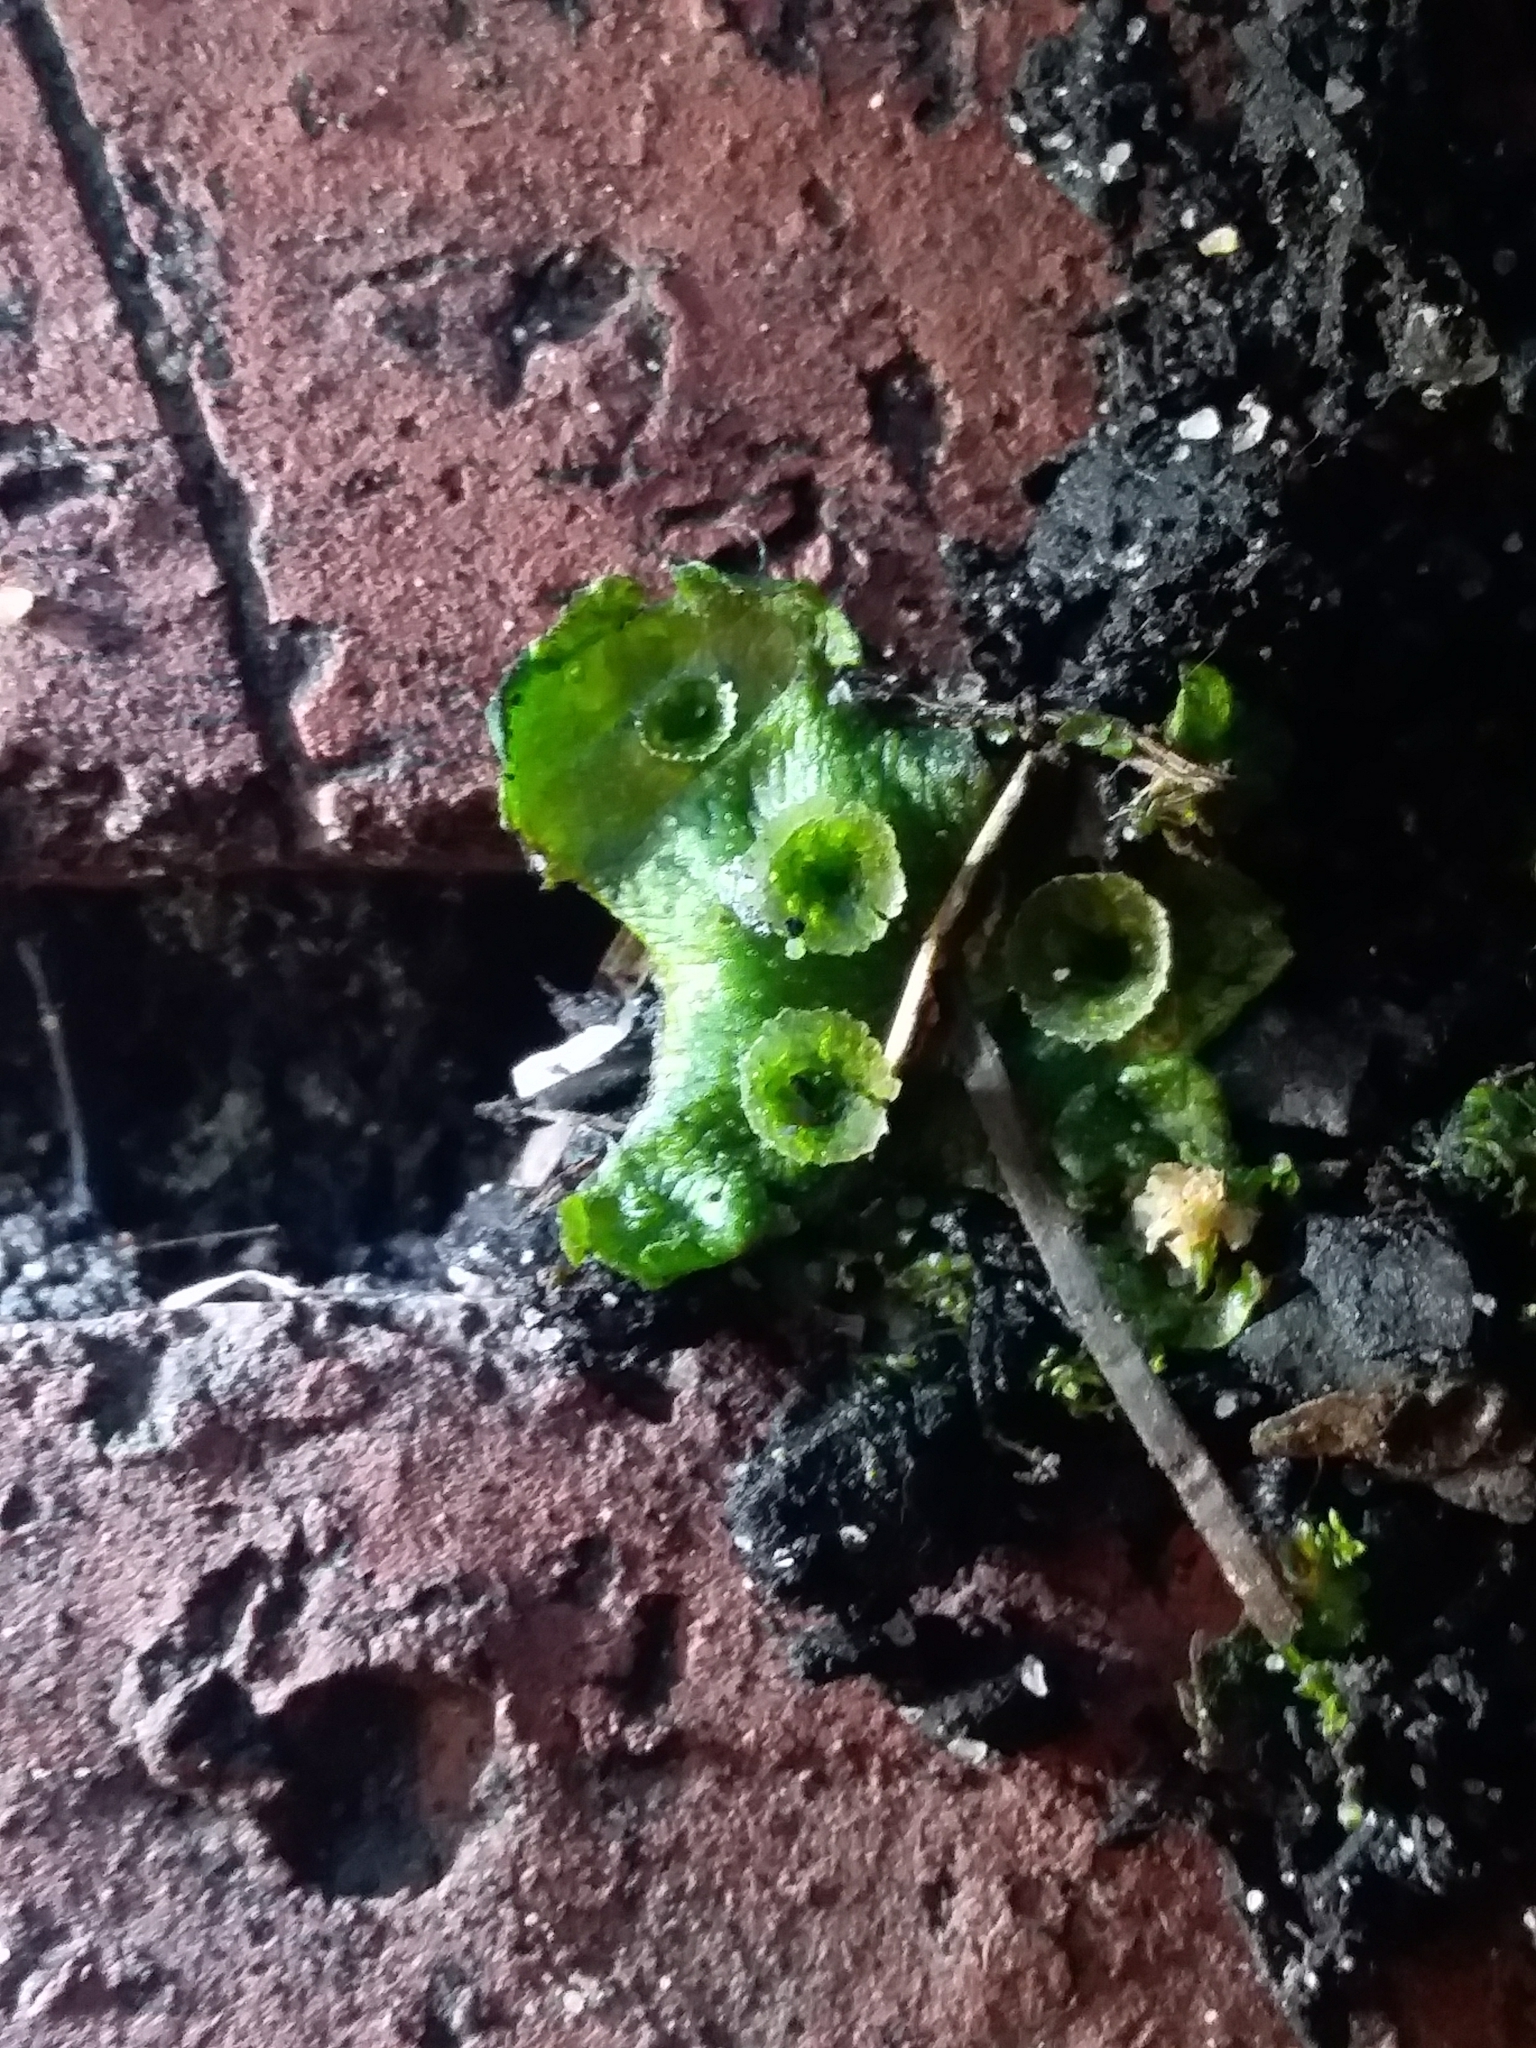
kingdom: Plantae
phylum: Marchantiophyta
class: Marchantiopsida
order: Marchantiales
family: Marchantiaceae
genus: Marchantia
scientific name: Marchantia polymorpha
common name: Common liverwort
